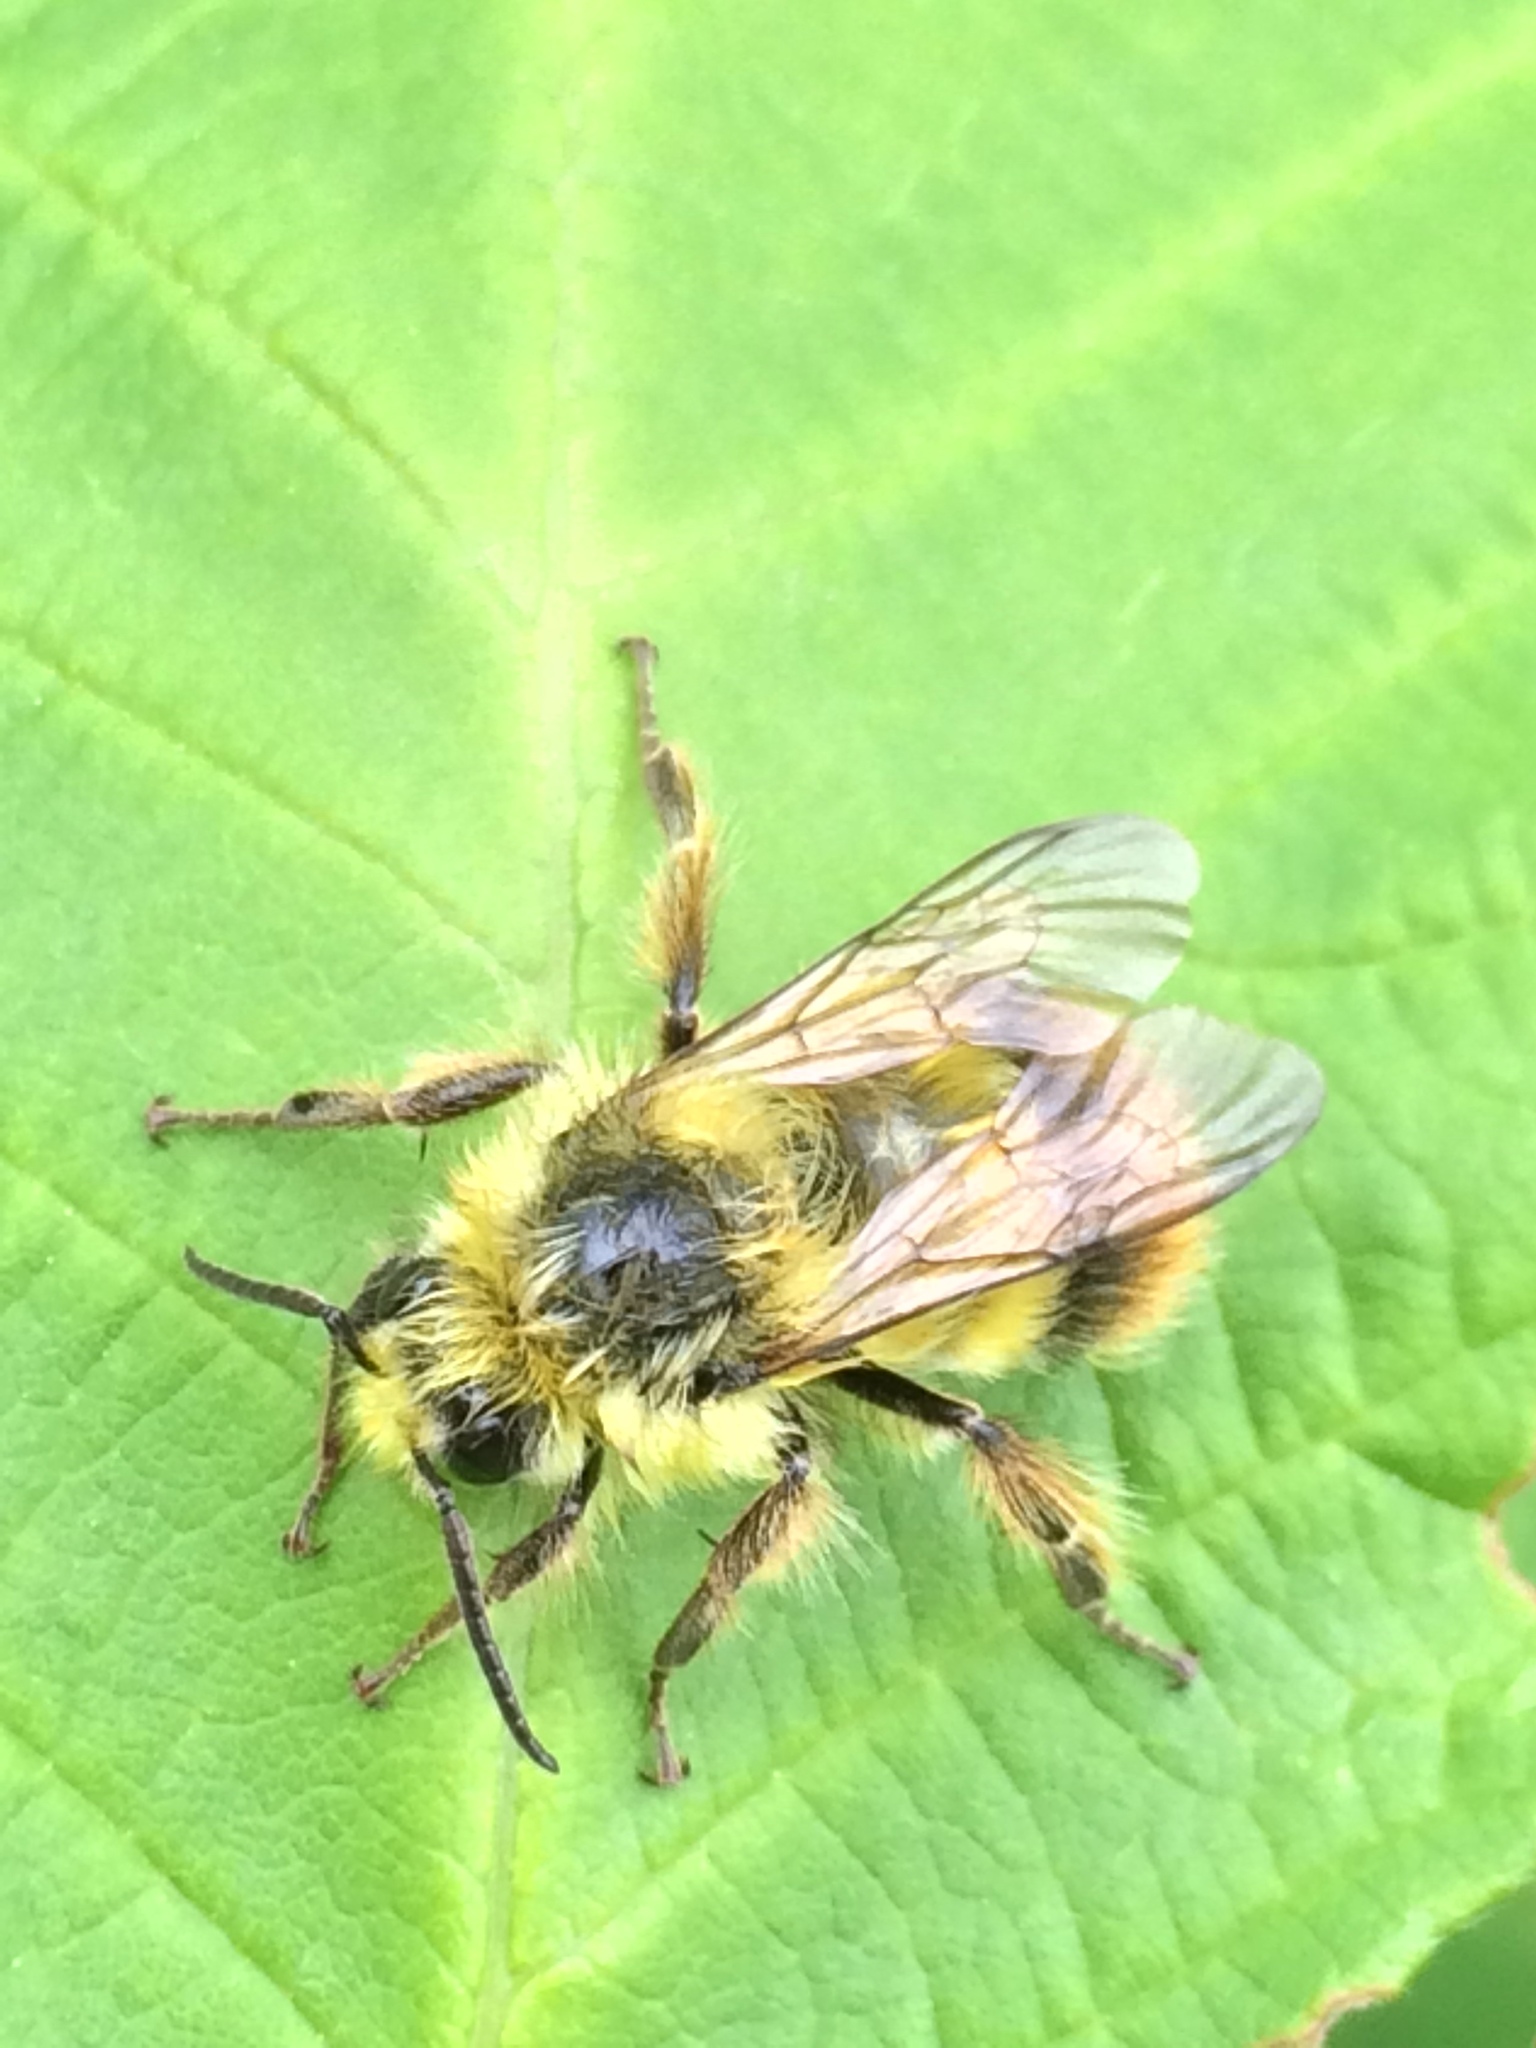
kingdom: Animalia
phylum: Arthropoda
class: Insecta
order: Hymenoptera
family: Apidae
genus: Bombus
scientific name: Bombus mixtus
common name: Fuzzy-horned bumble bee
